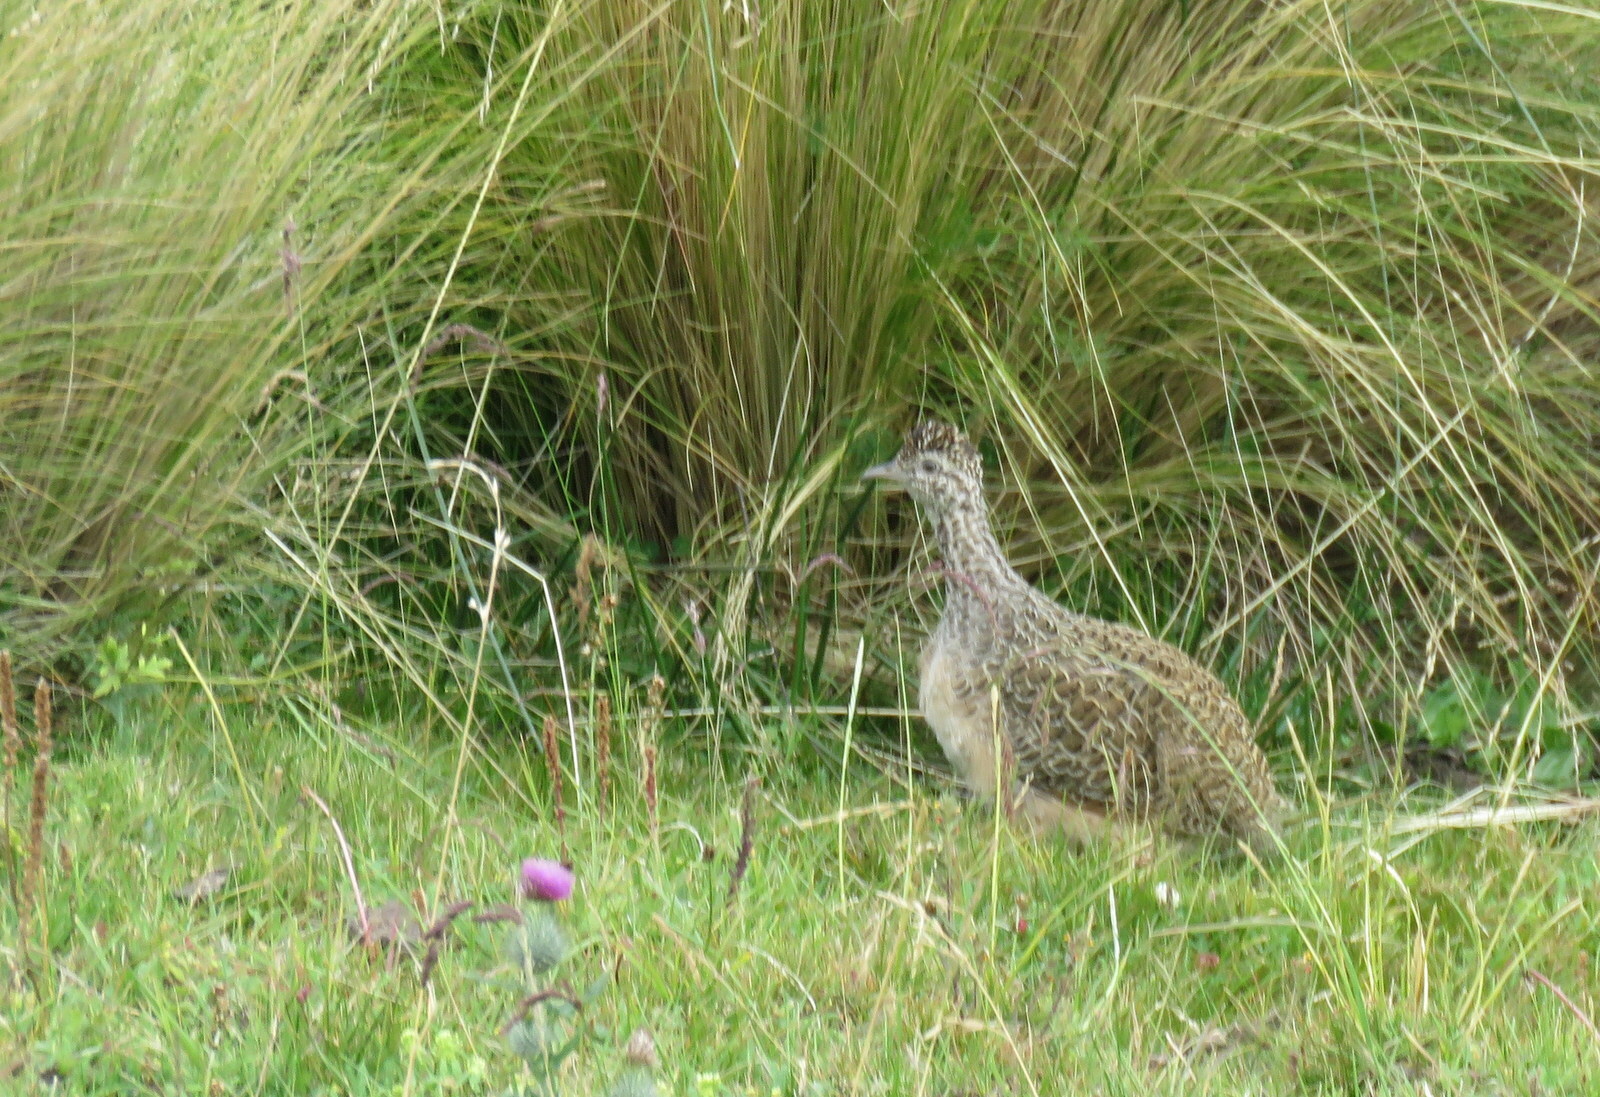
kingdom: Animalia
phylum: Chordata
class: Aves
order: Tinamiformes
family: Tinamidae
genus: Nothoprocta
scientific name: Nothoprocta ornata
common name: Ornate tinamou
